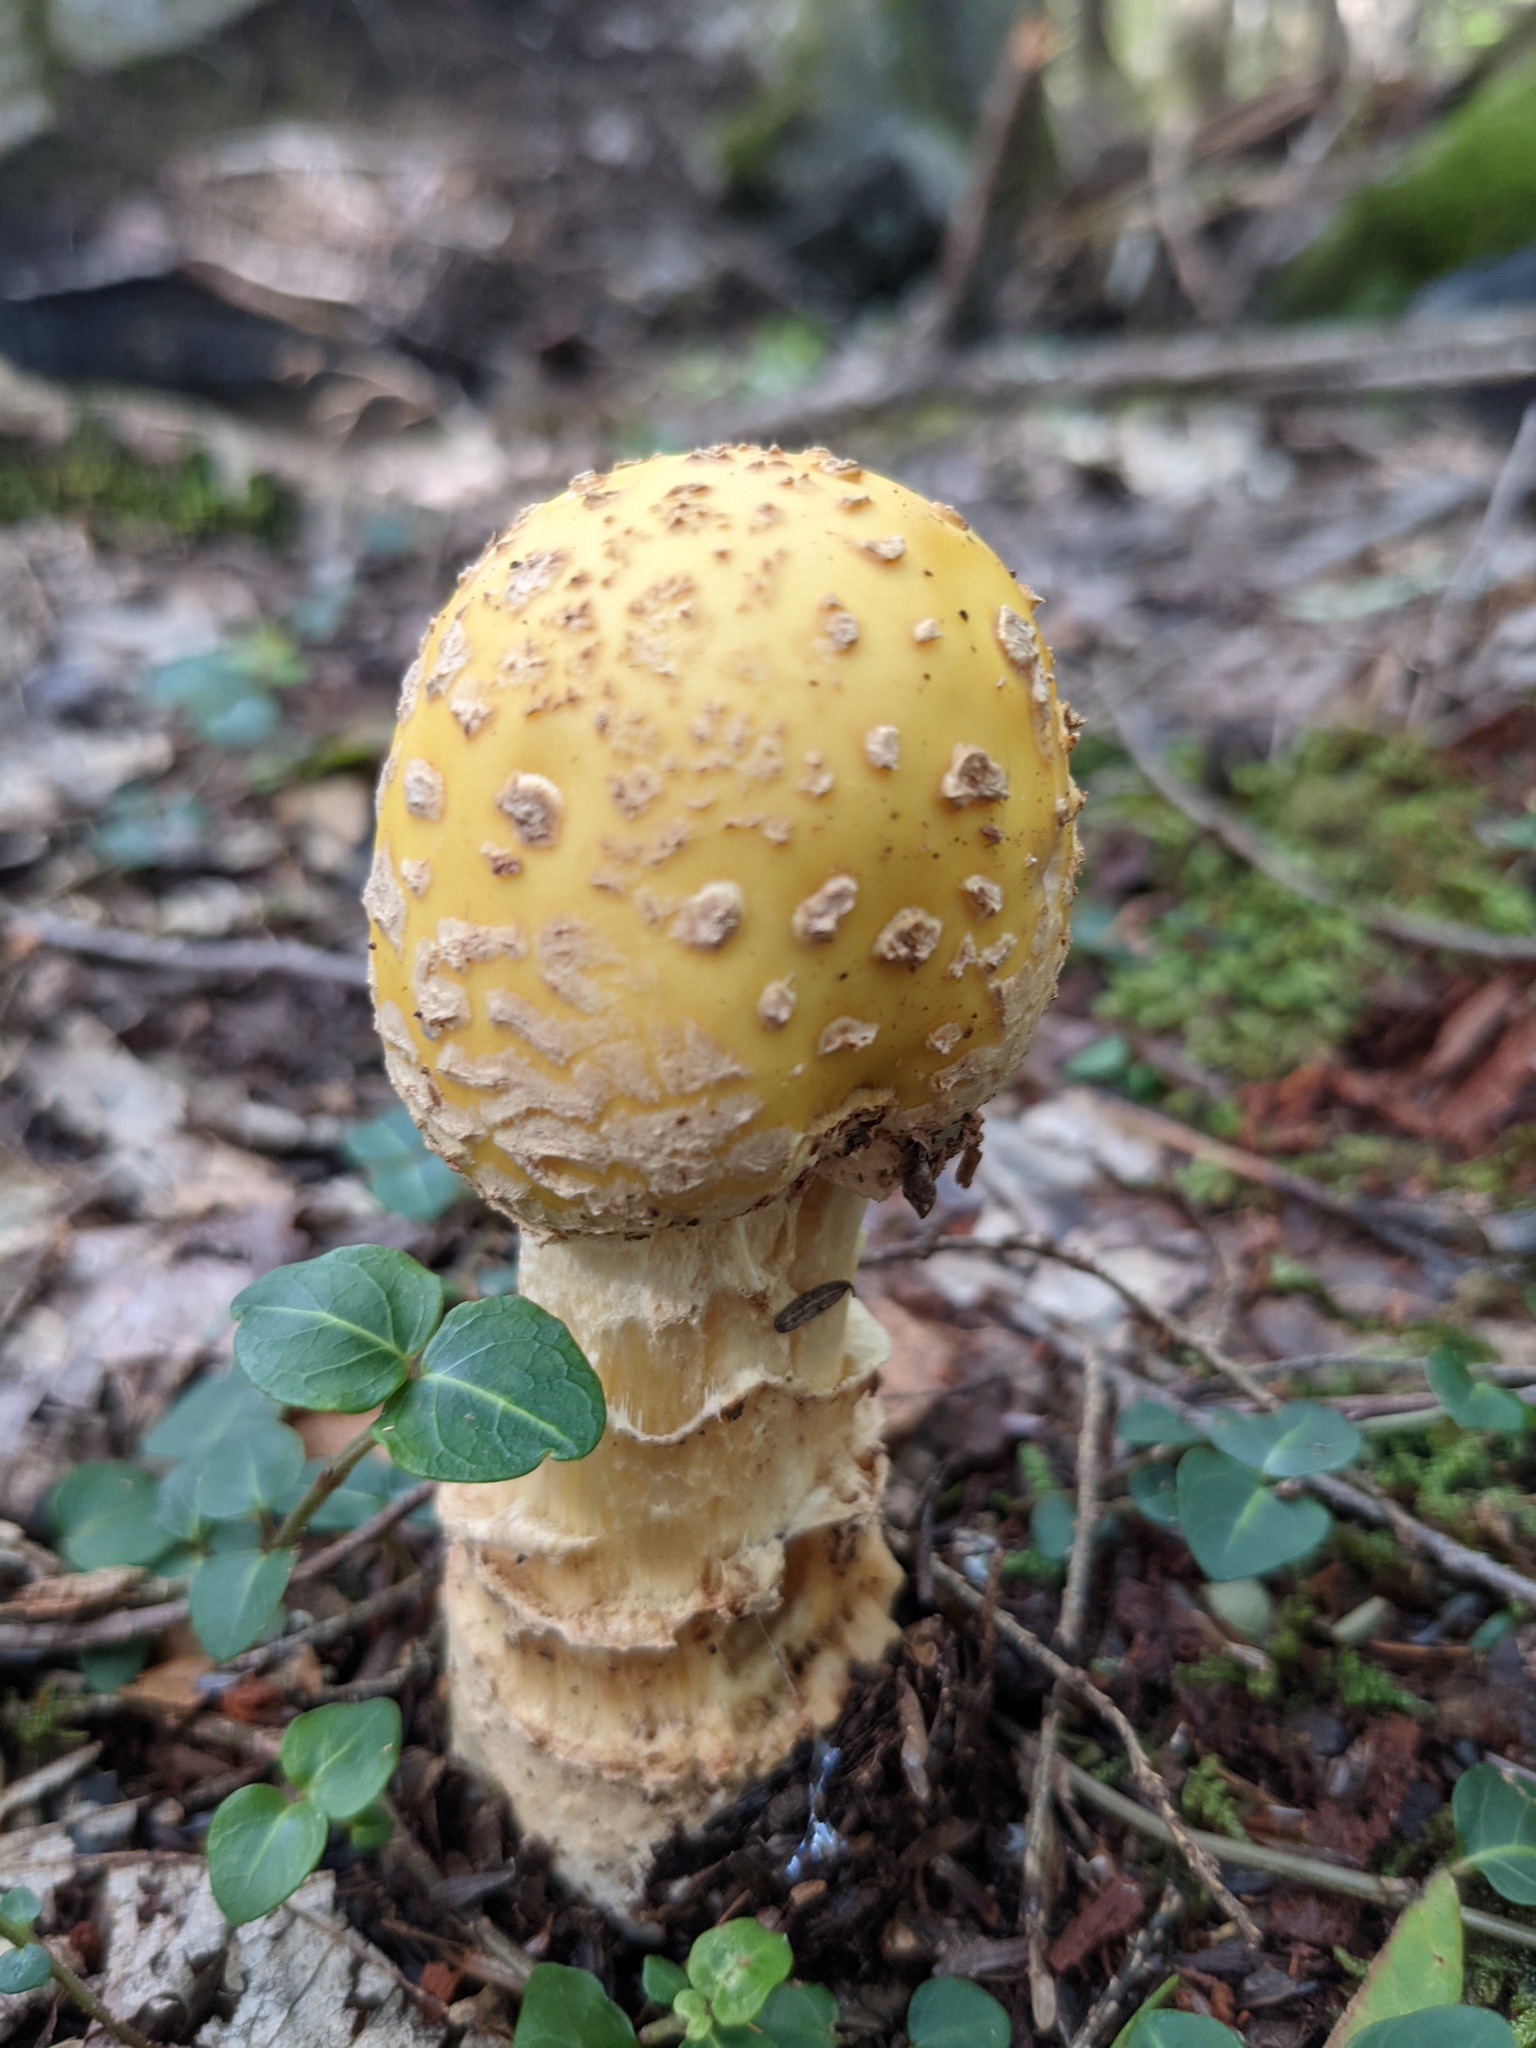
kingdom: Fungi
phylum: Basidiomycota
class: Agaricomycetes
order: Agaricales
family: Amanitaceae
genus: Amanita
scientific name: Amanita muscaria
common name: Fly agaric
